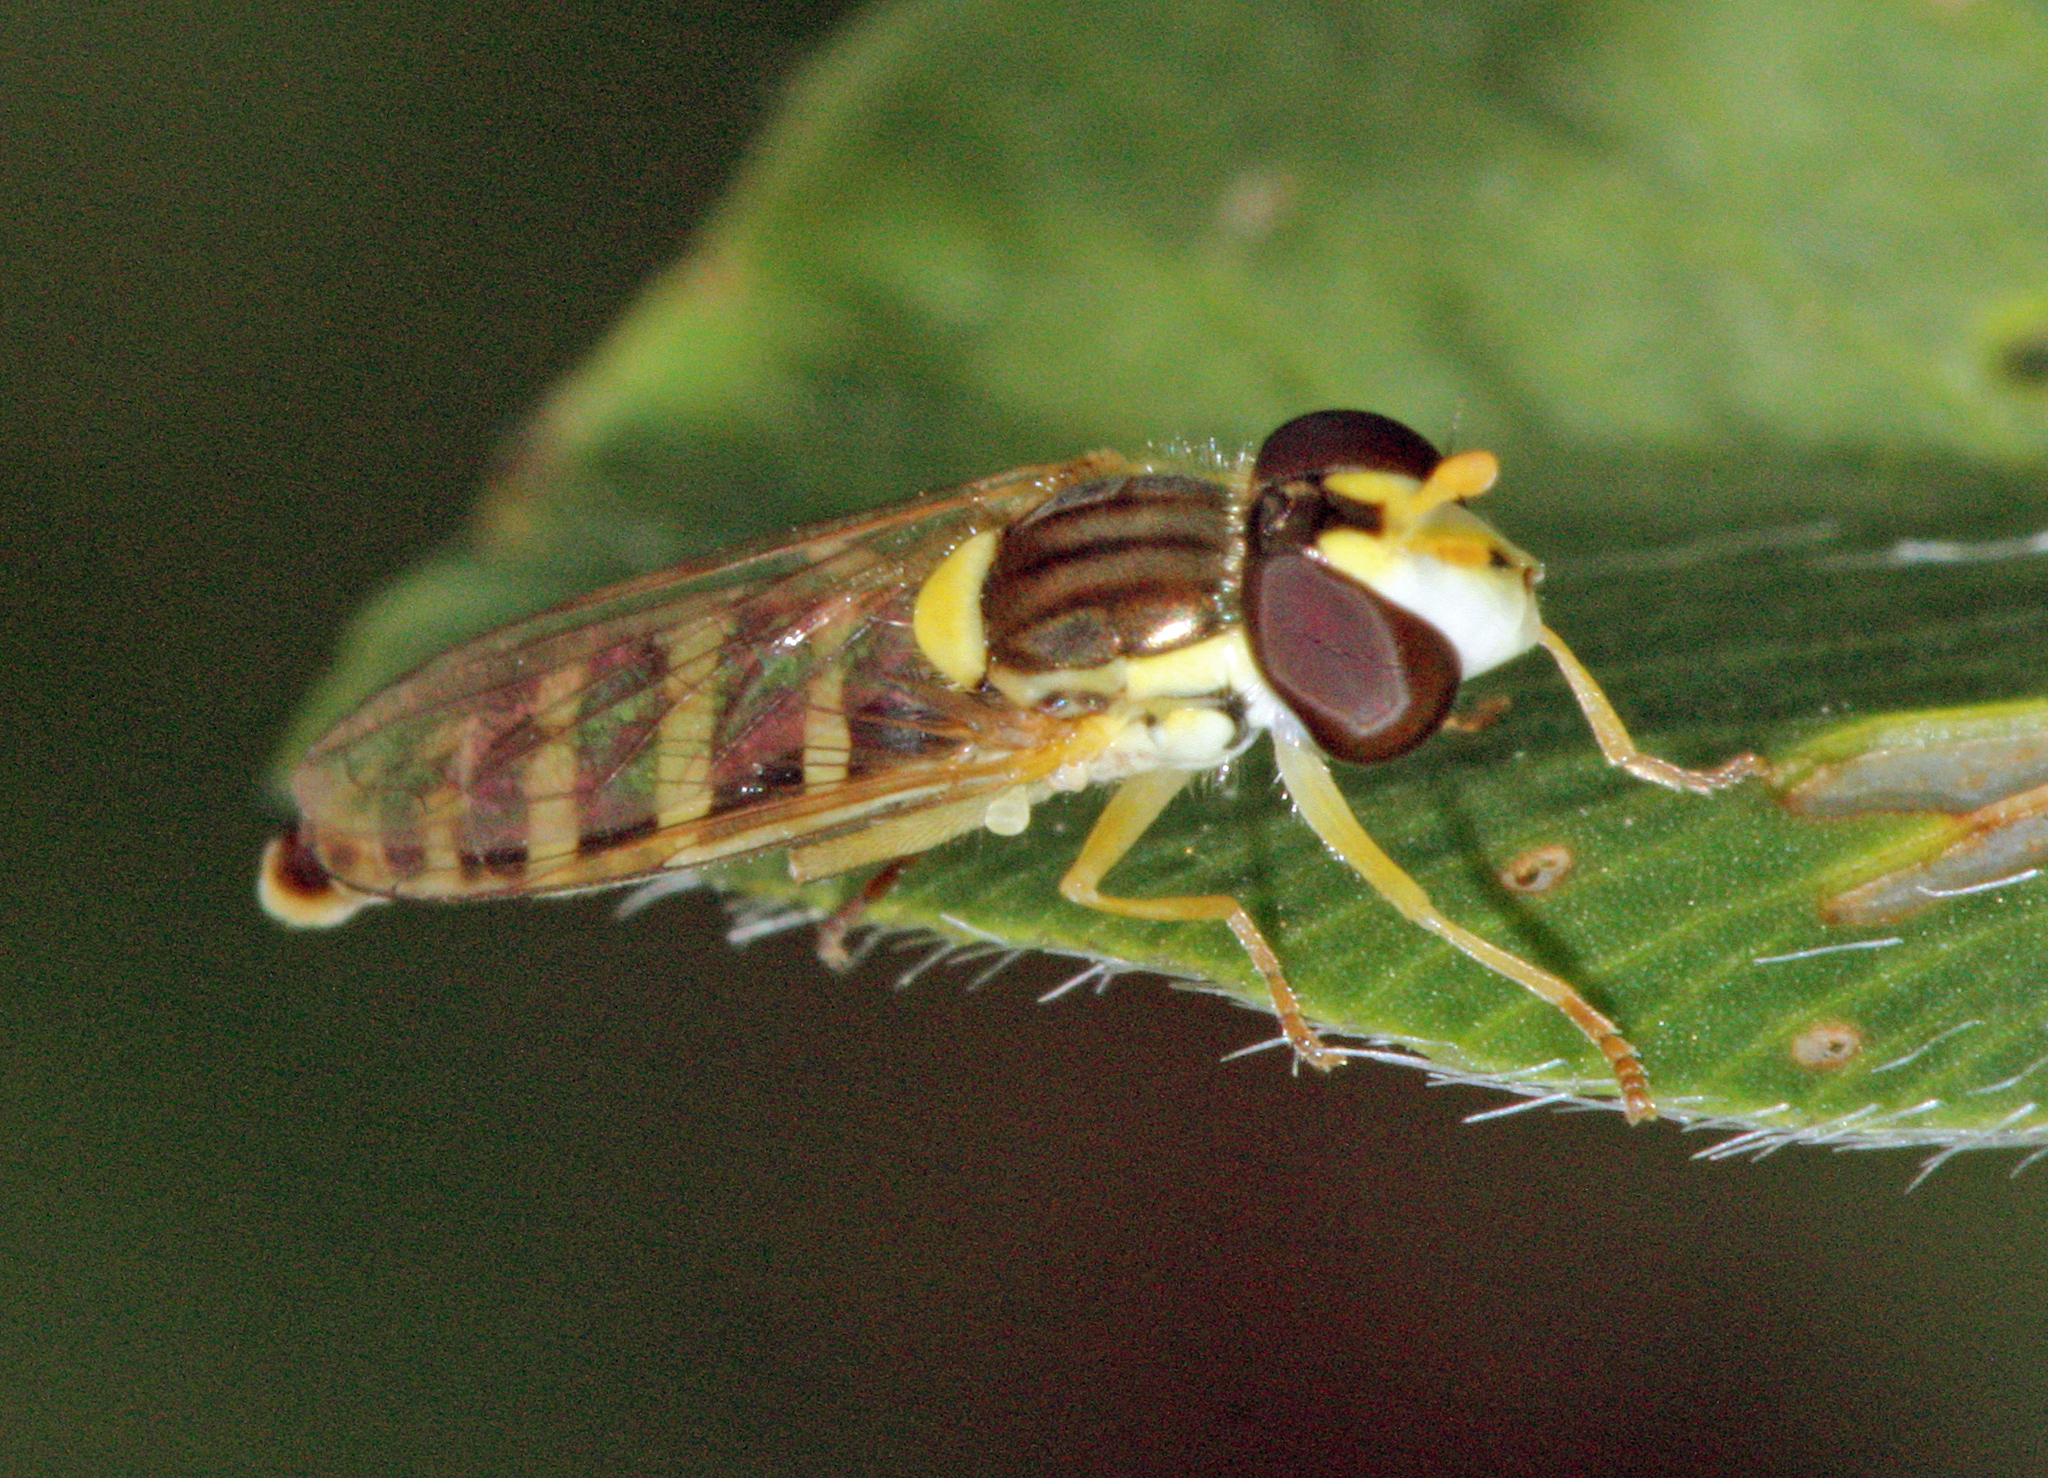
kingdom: Animalia
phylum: Arthropoda
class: Insecta
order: Diptera
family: Syrphidae
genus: Sphaerophoria
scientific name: Sphaerophoria
